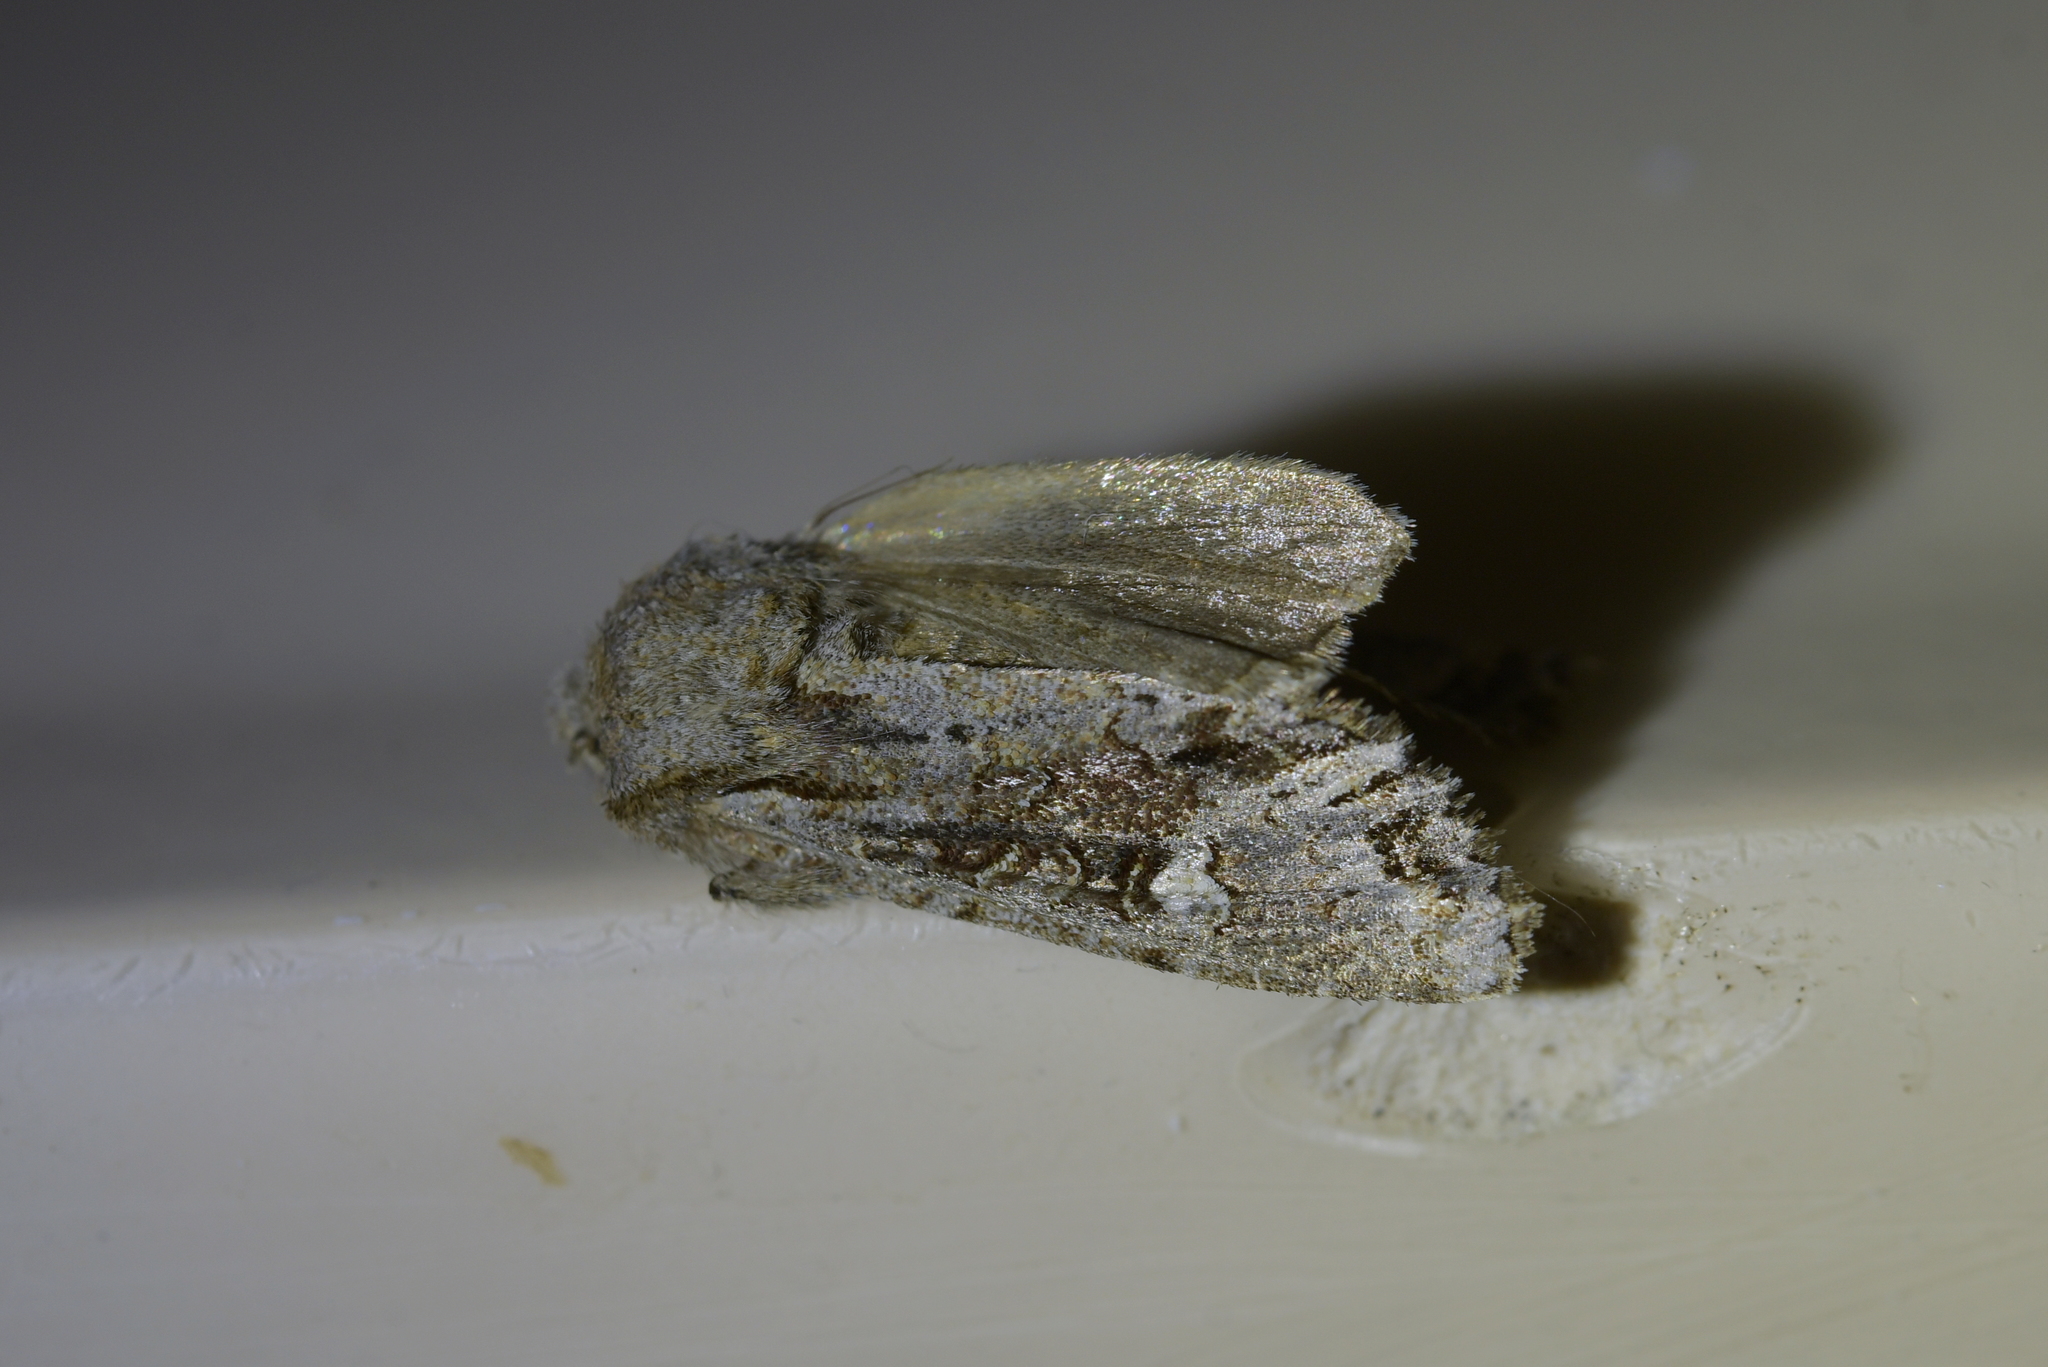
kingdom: Animalia
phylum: Arthropoda
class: Insecta
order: Lepidoptera
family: Noctuidae
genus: Ichneutica
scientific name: Ichneutica
